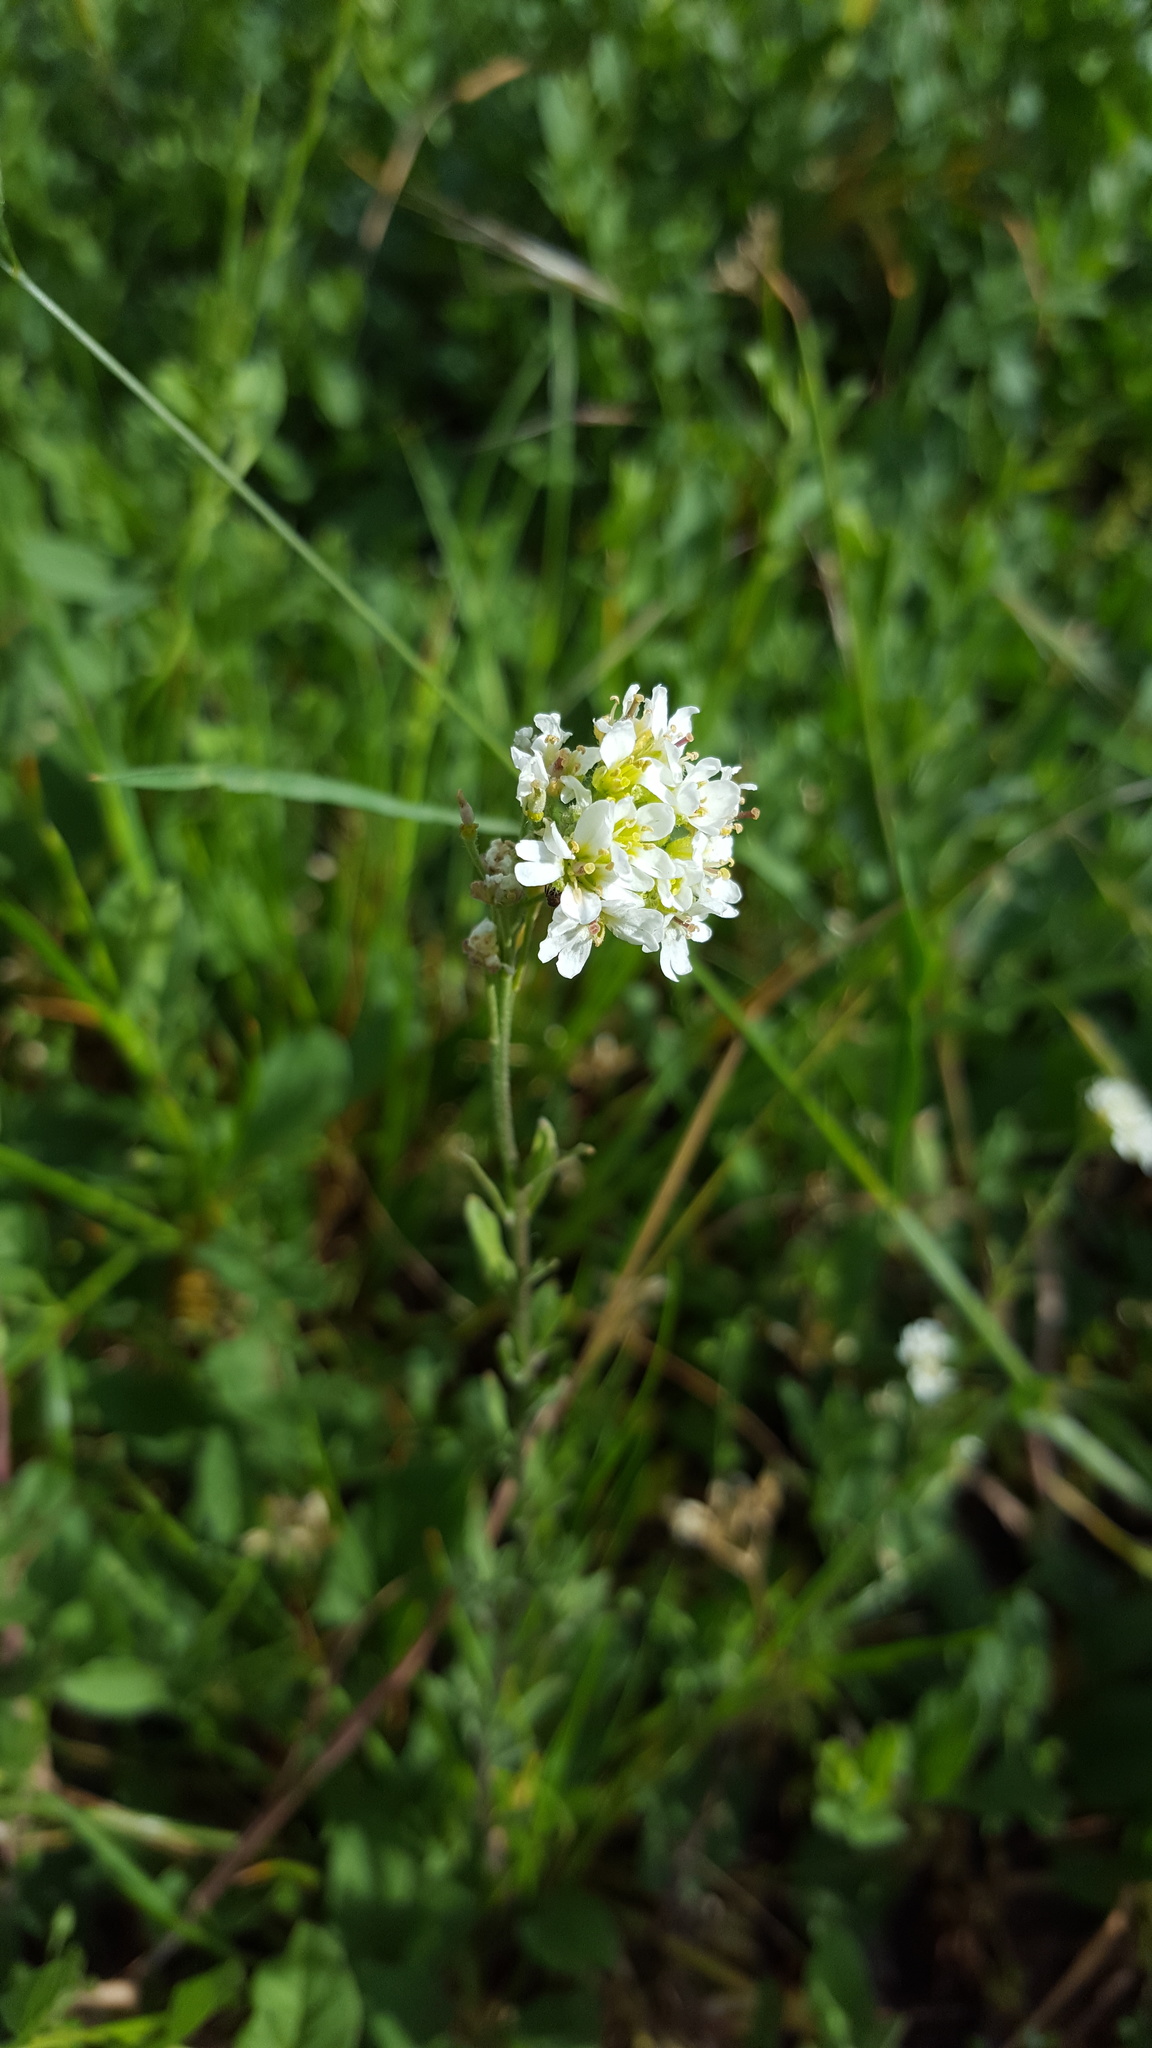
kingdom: Plantae
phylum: Tracheophyta
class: Magnoliopsida
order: Brassicales
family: Brassicaceae
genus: Berteroa
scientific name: Berteroa incana
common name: Hoary alison
